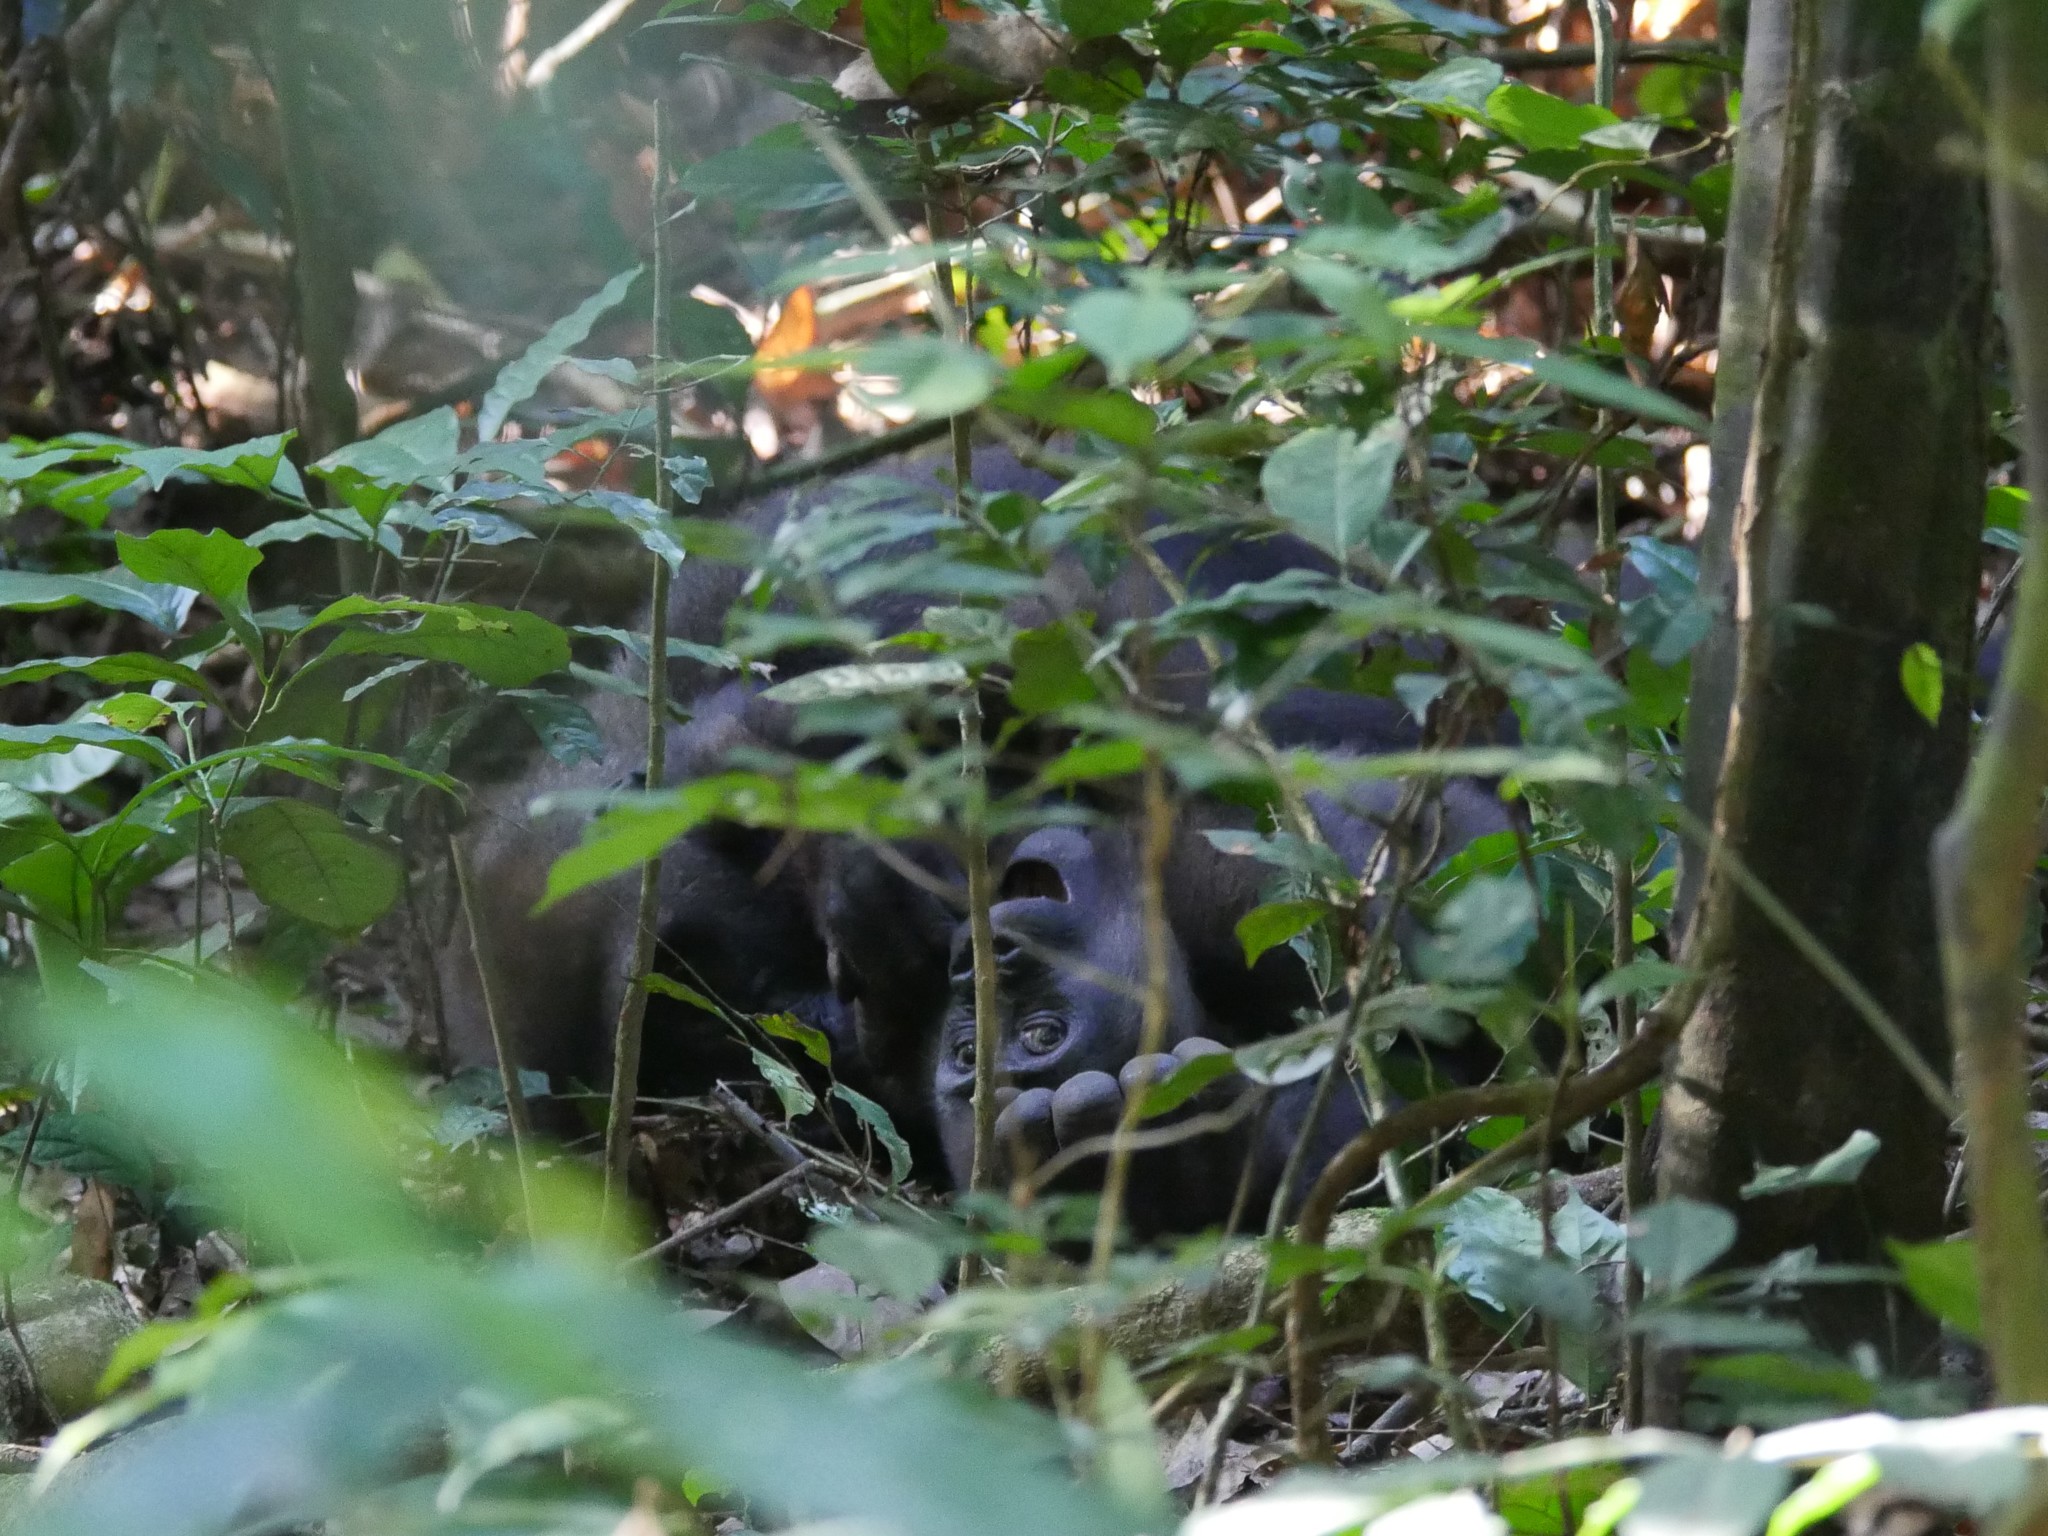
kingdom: Animalia
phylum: Chordata
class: Mammalia
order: Primates
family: Hominidae
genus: Gorilla
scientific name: Gorilla gorilla
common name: Western gorilla
